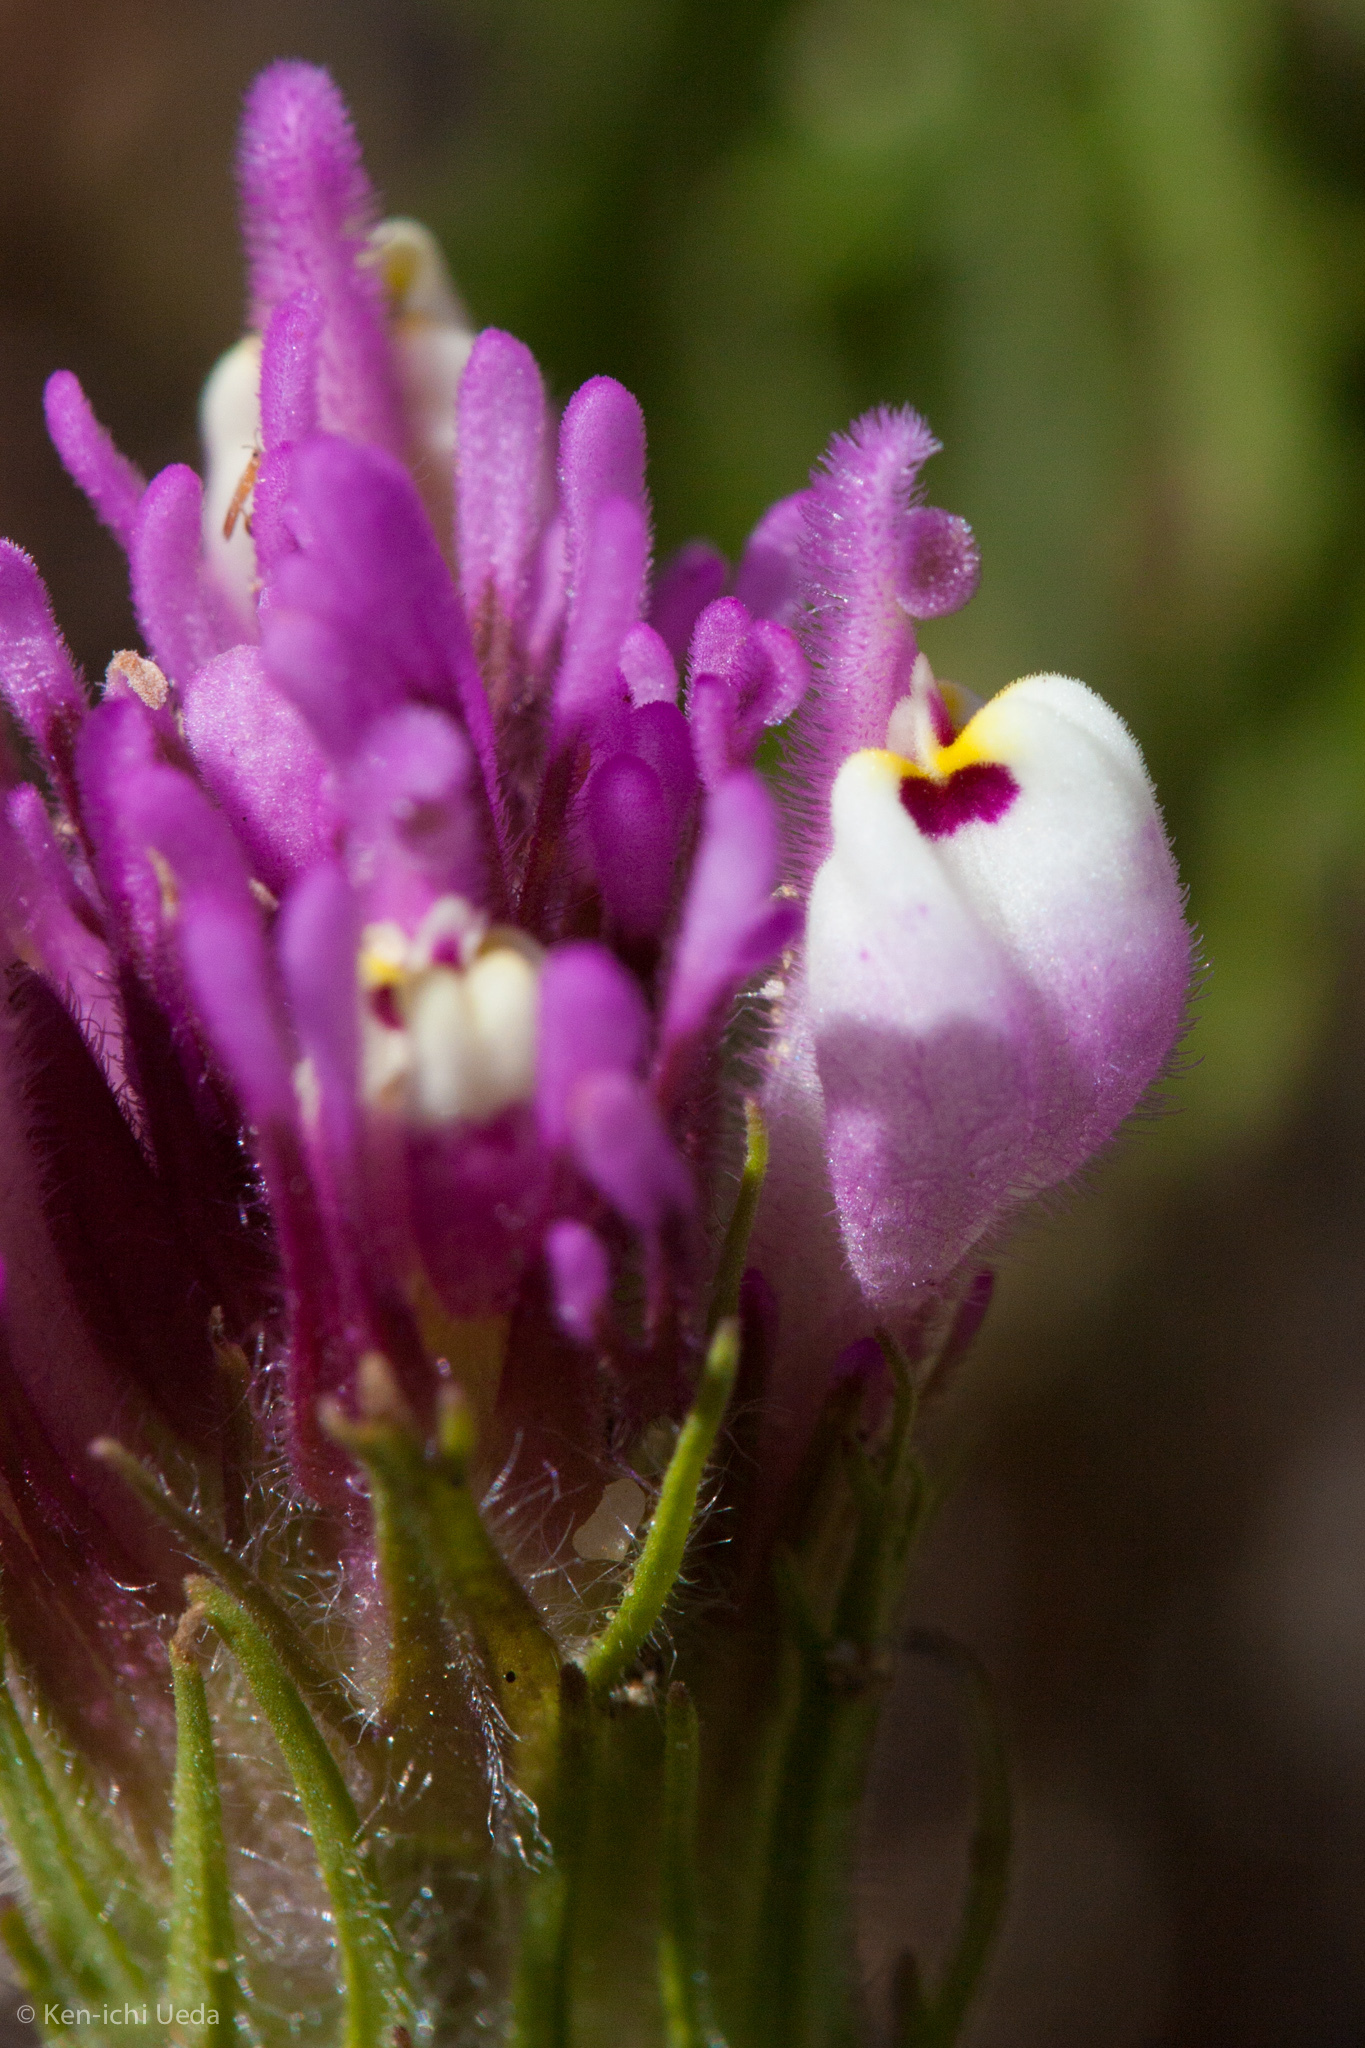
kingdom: Plantae
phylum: Tracheophyta
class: Magnoliopsida
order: Lamiales
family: Orobanchaceae
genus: Castilleja
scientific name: Castilleja exserta
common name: Purple owl-clover
